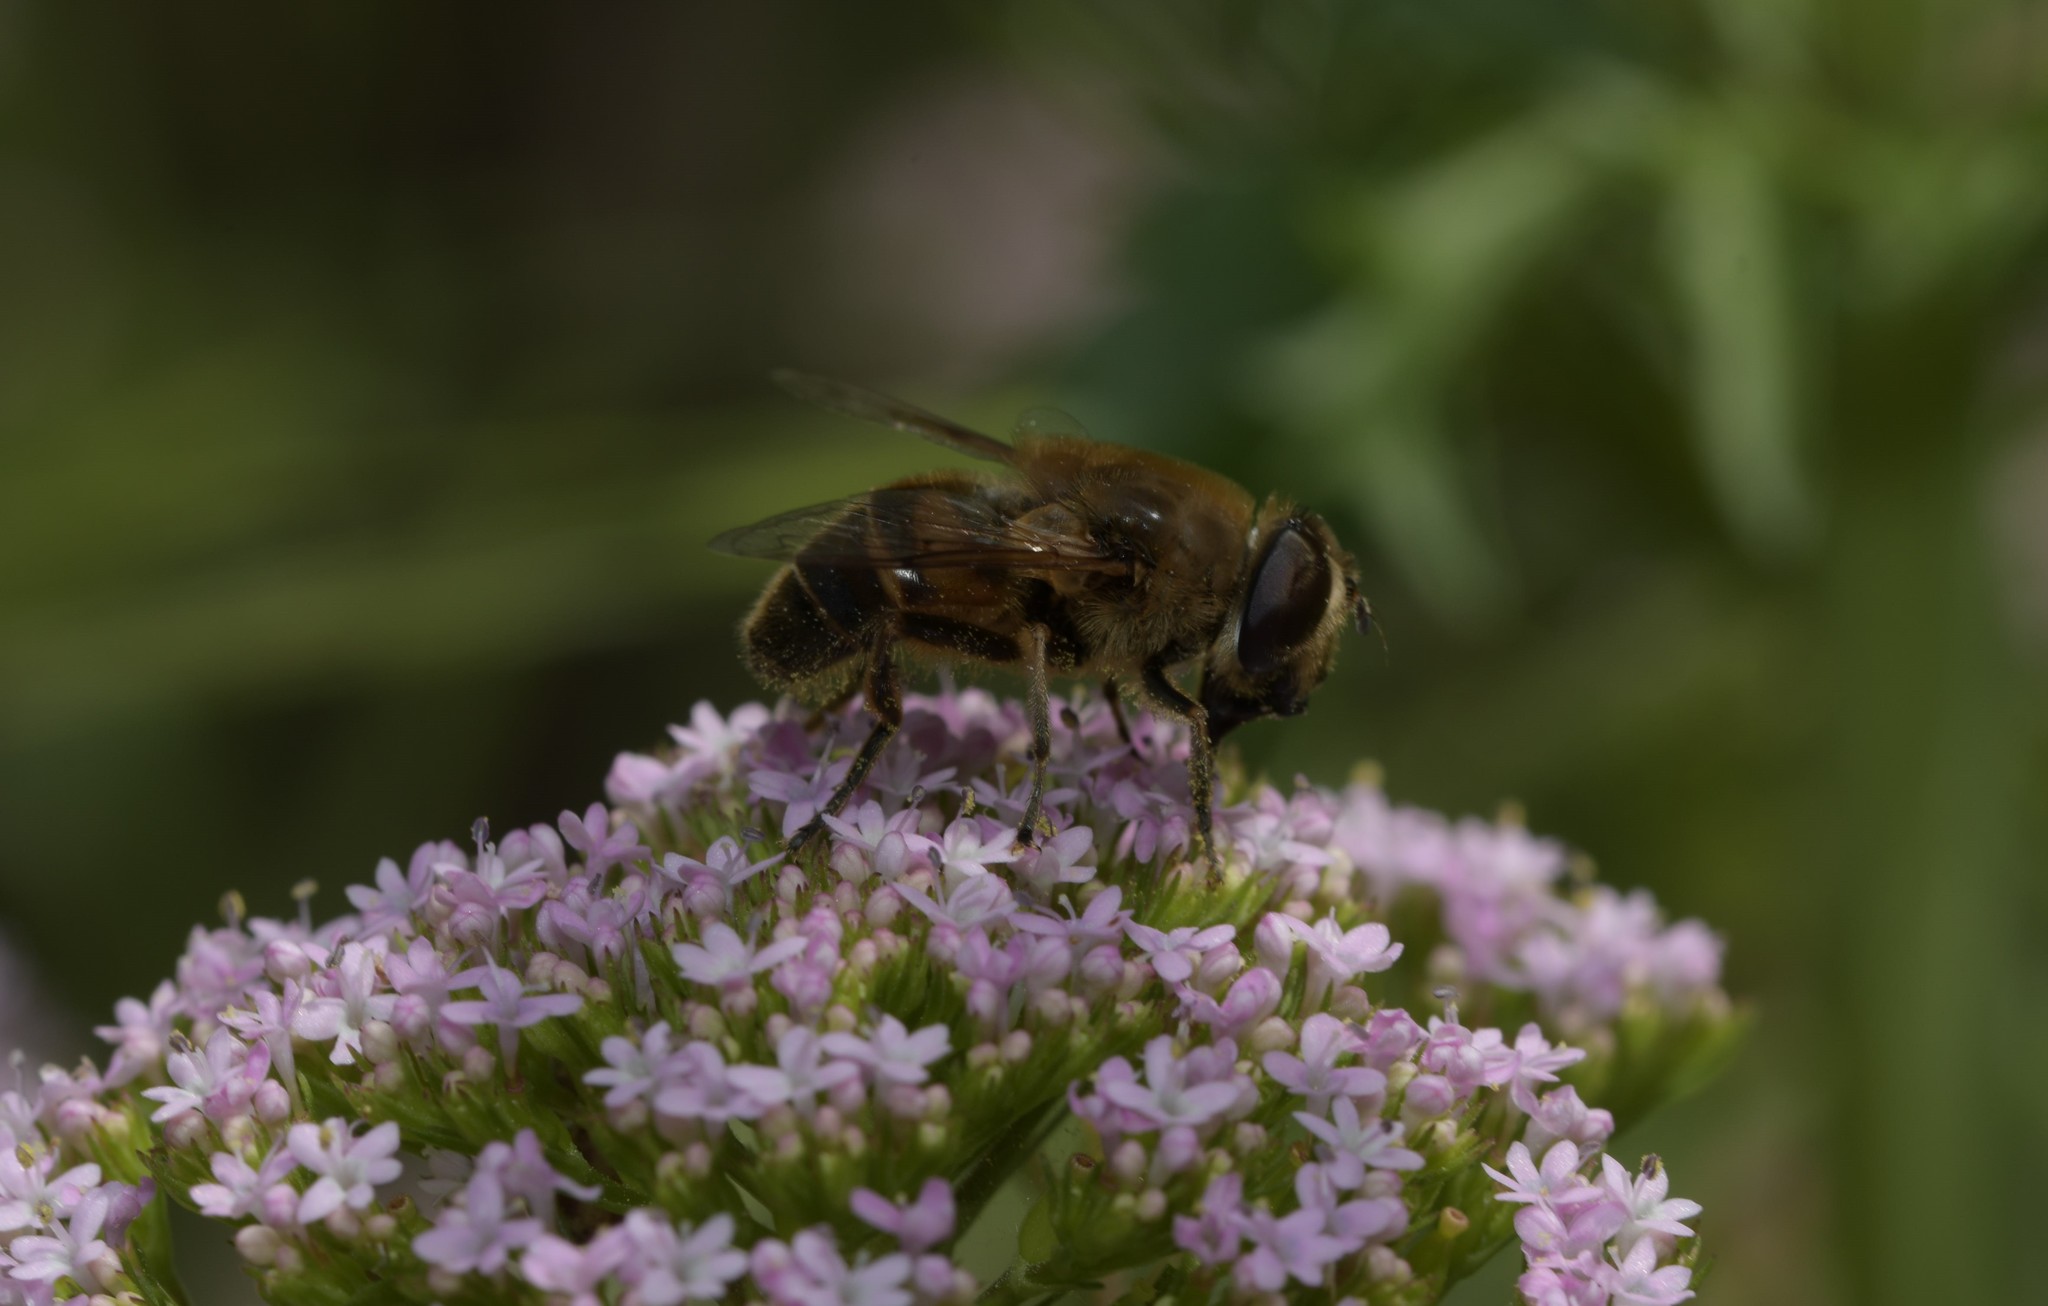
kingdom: Animalia
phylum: Arthropoda
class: Insecta
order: Diptera
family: Syrphidae
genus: Eristalis
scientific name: Eristalis tenax
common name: Drone fly
